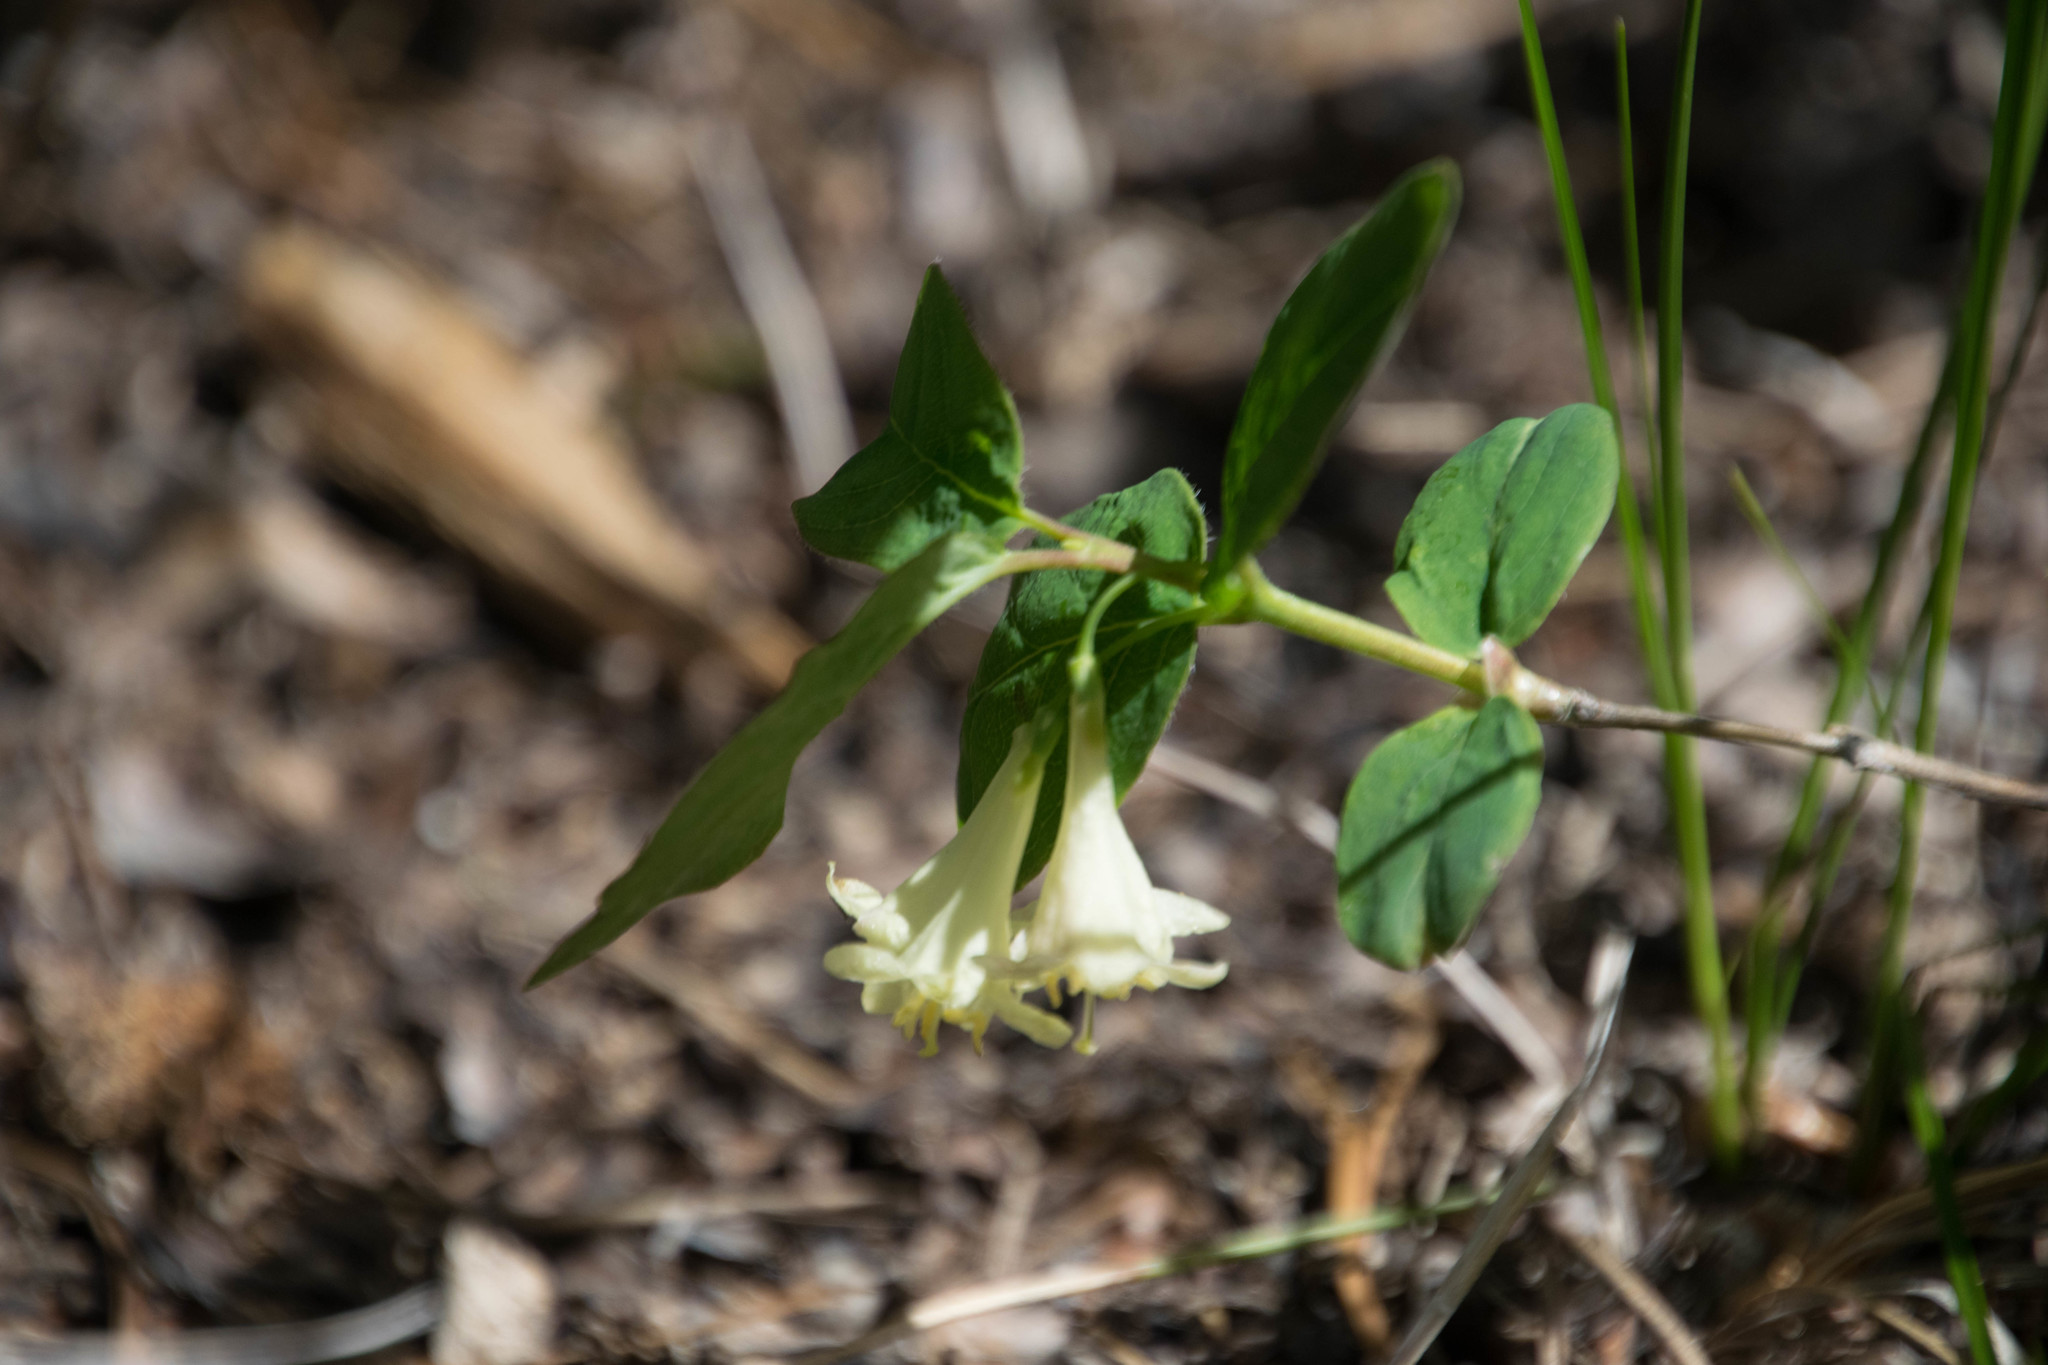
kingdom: Plantae
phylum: Tracheophyta
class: Magnoliopsida
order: Dipsacales
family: Caprifoliaceae
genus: Lonicera
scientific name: Lonicera utahensis
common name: Utah honeysuckle
